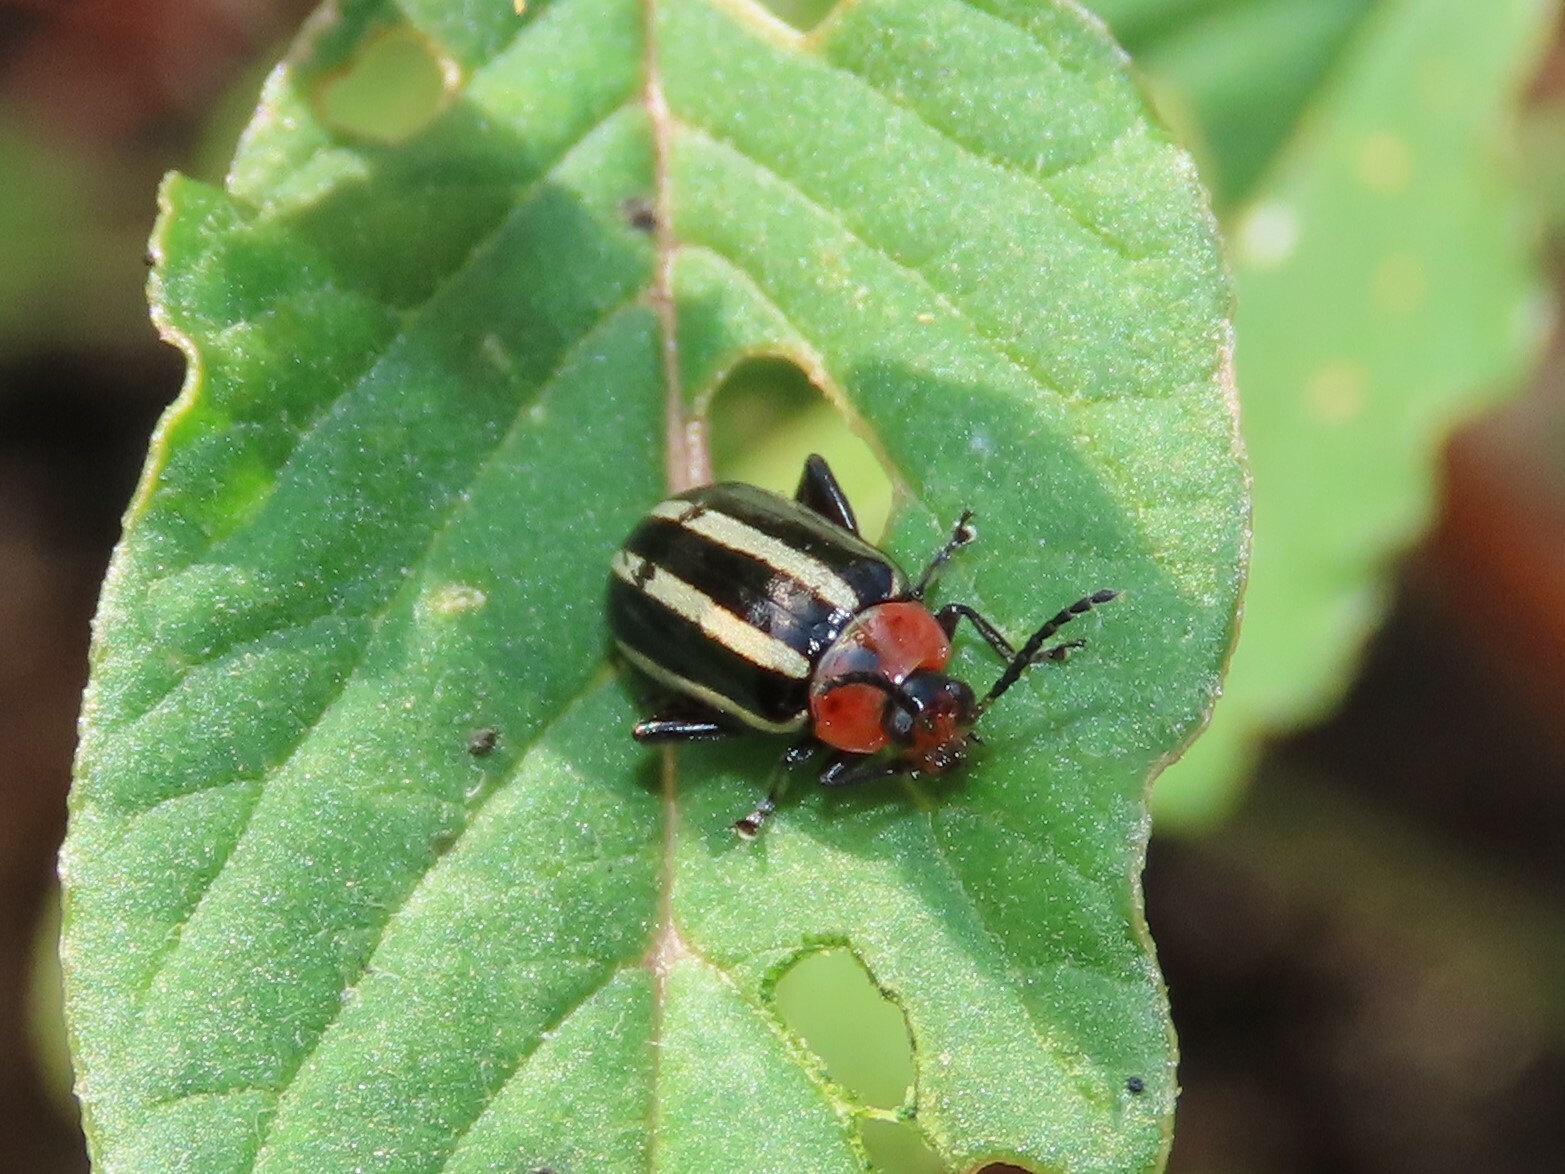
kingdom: Animalia
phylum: Arthropoda
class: Insecta
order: Coleoptera
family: Chrysomelidae
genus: Disonycha
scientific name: Disonycha glabrata
